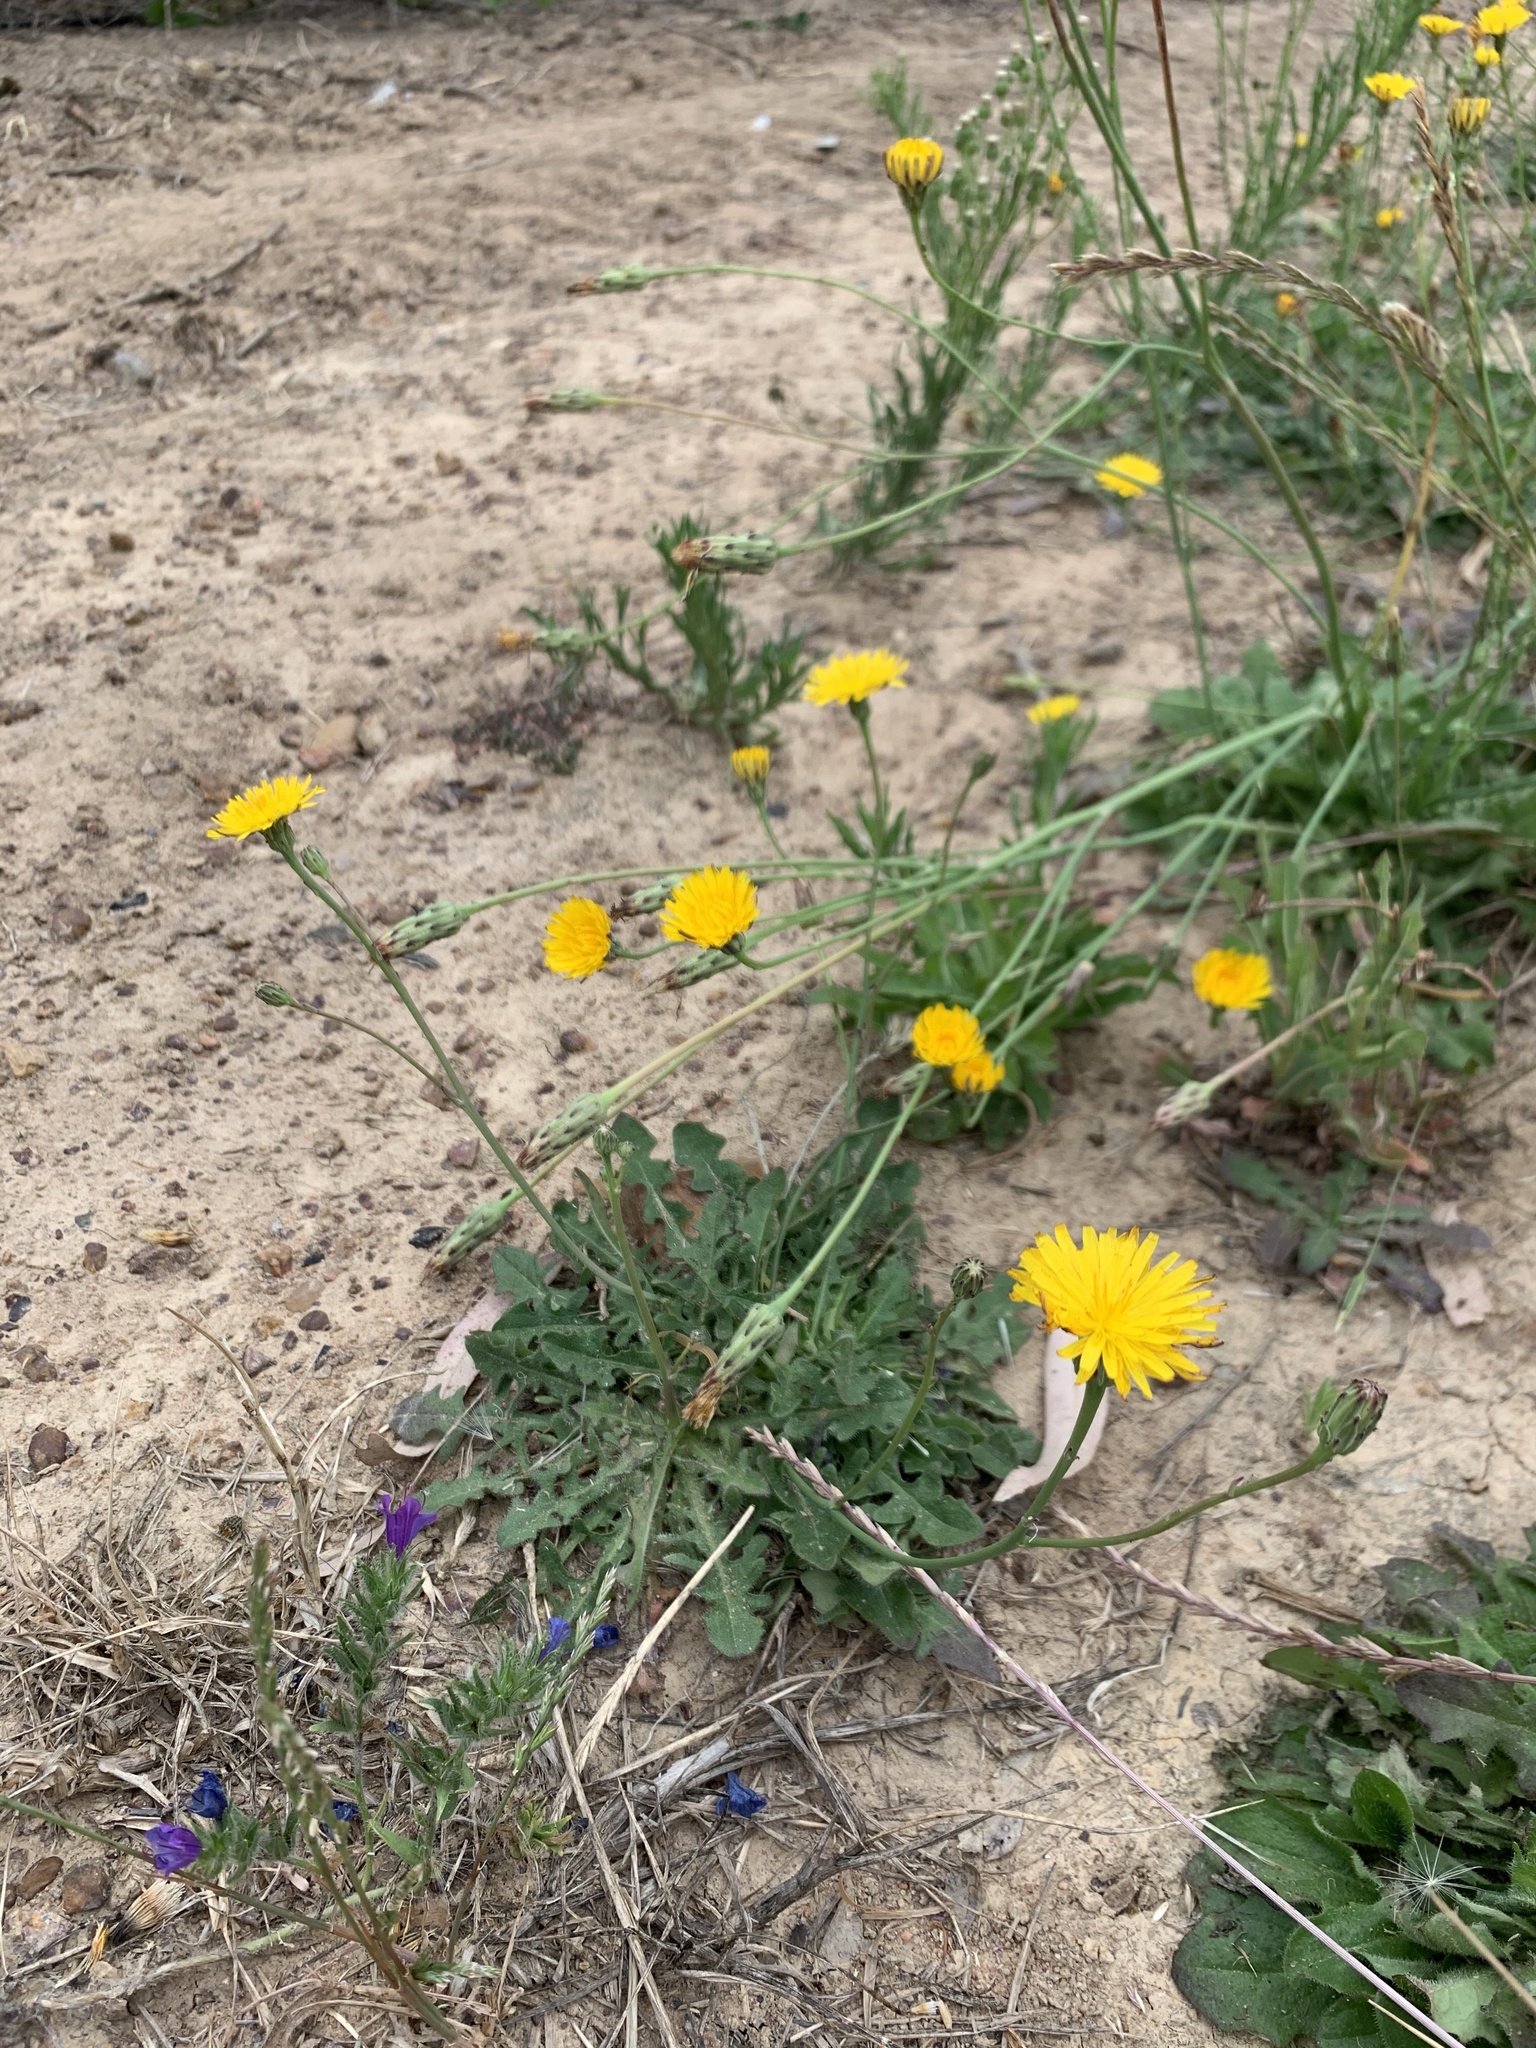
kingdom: Plantae
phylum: Tracheophyta
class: Magnoliopsida
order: Asterales
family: Asteraceae
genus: Hypochaeris
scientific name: Hypochaeris radicata
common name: Flatweed
